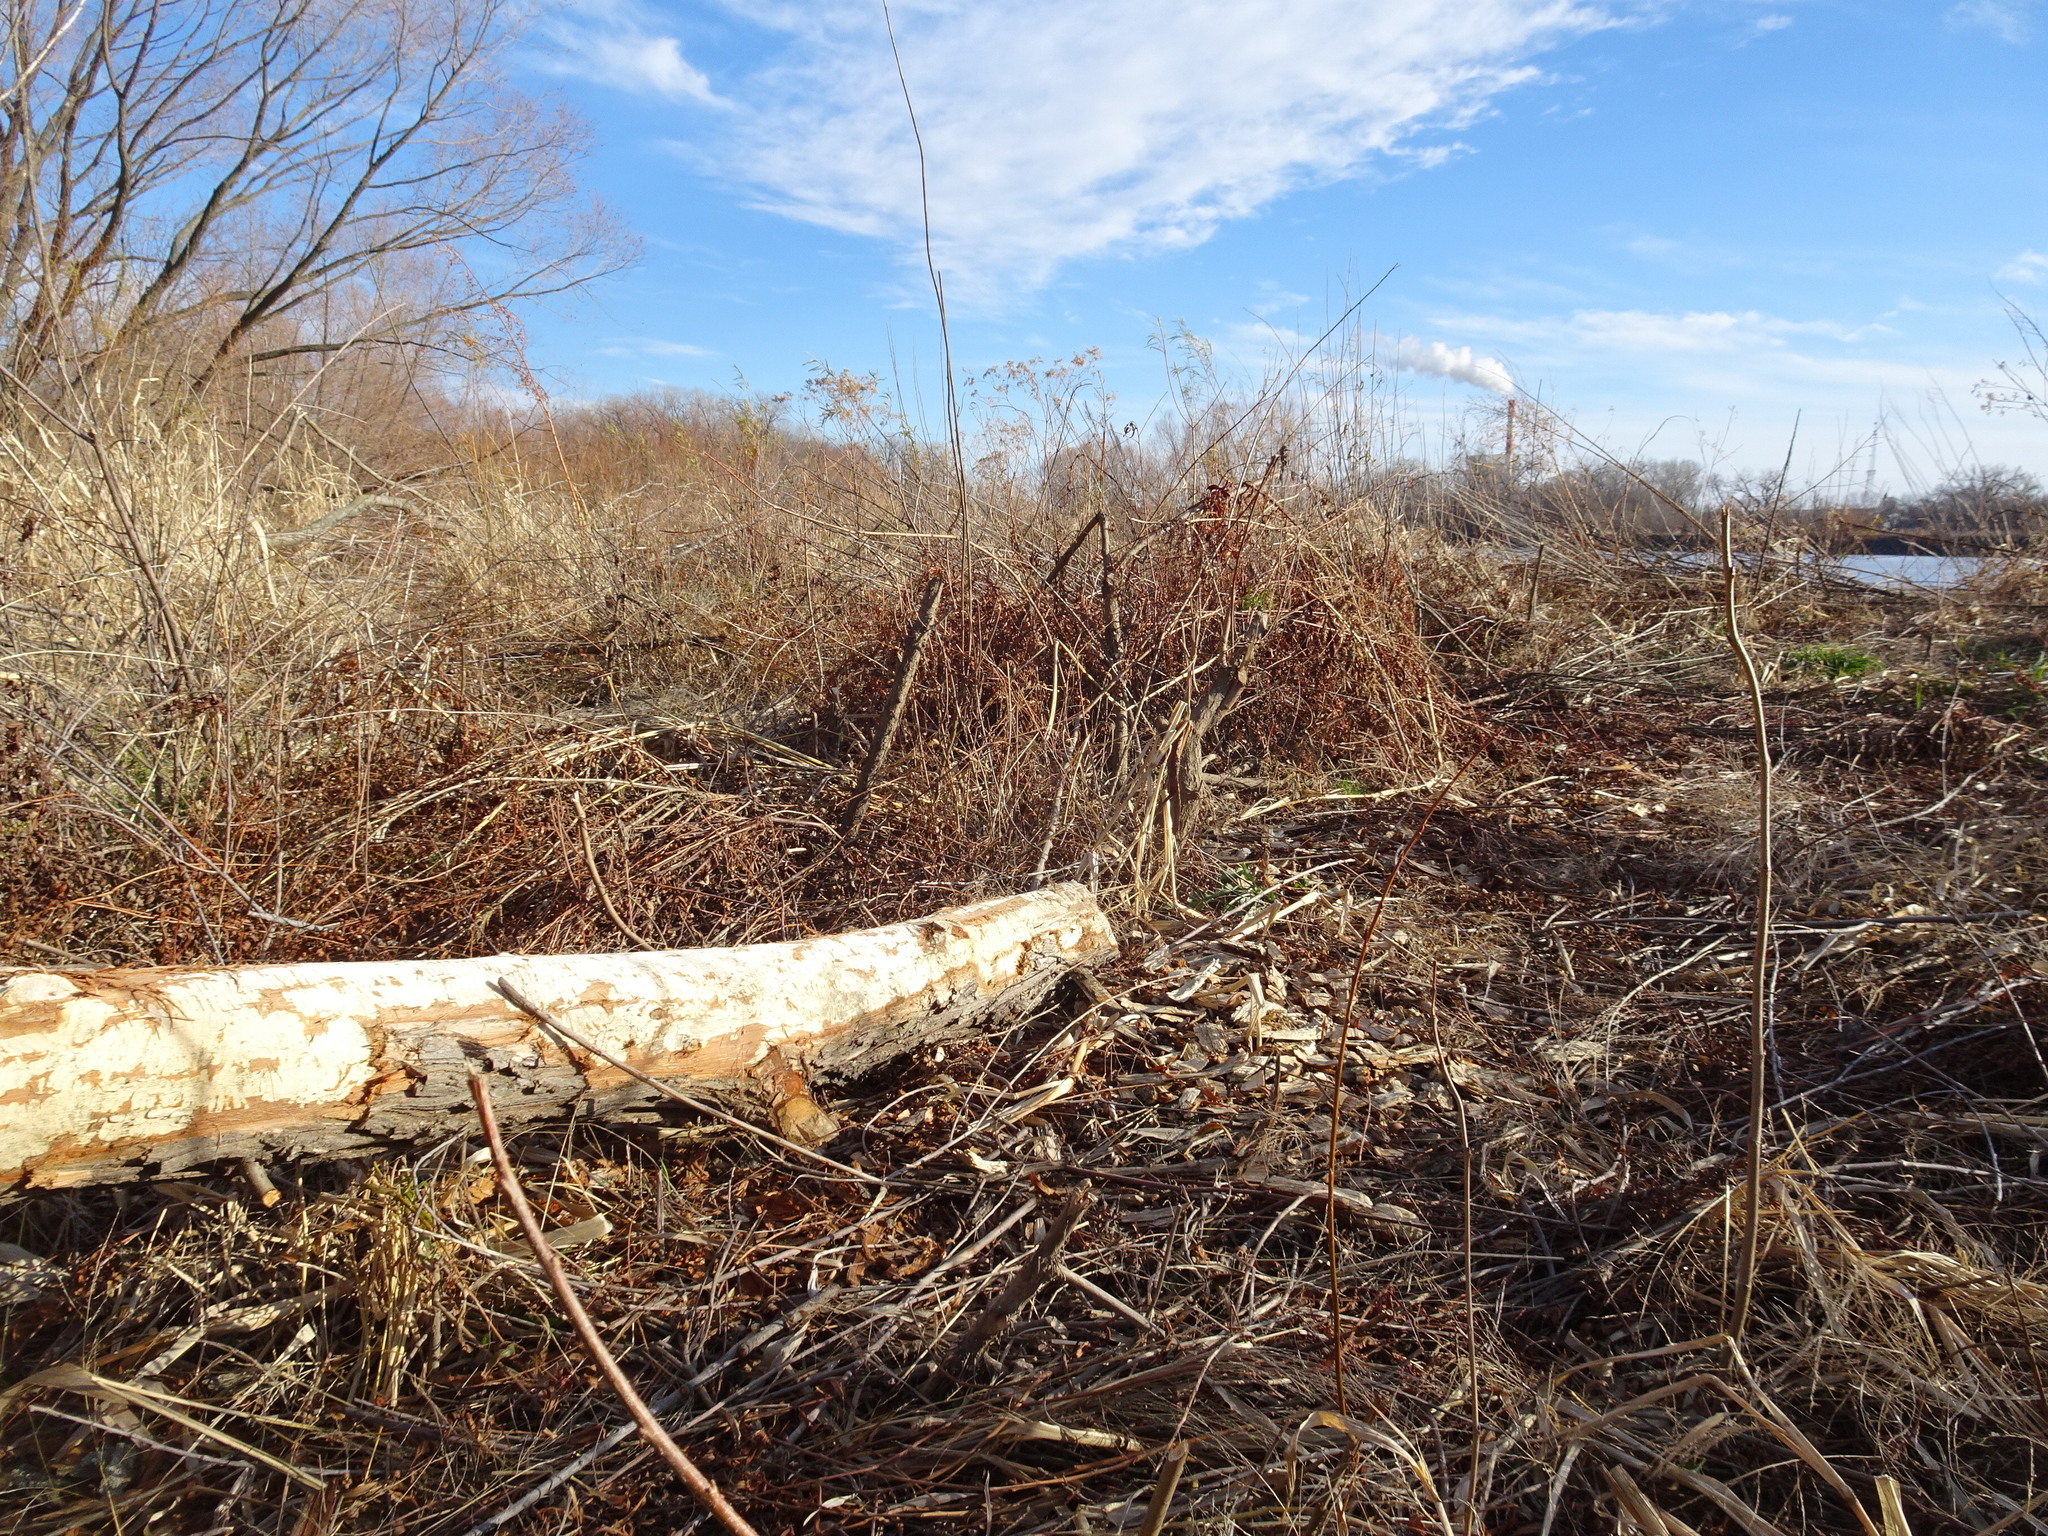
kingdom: Animalia
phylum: Chordata
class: Mammalia
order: Rodentia
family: Castoridae
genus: Castor
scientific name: Castor canadensis
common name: American beaver
